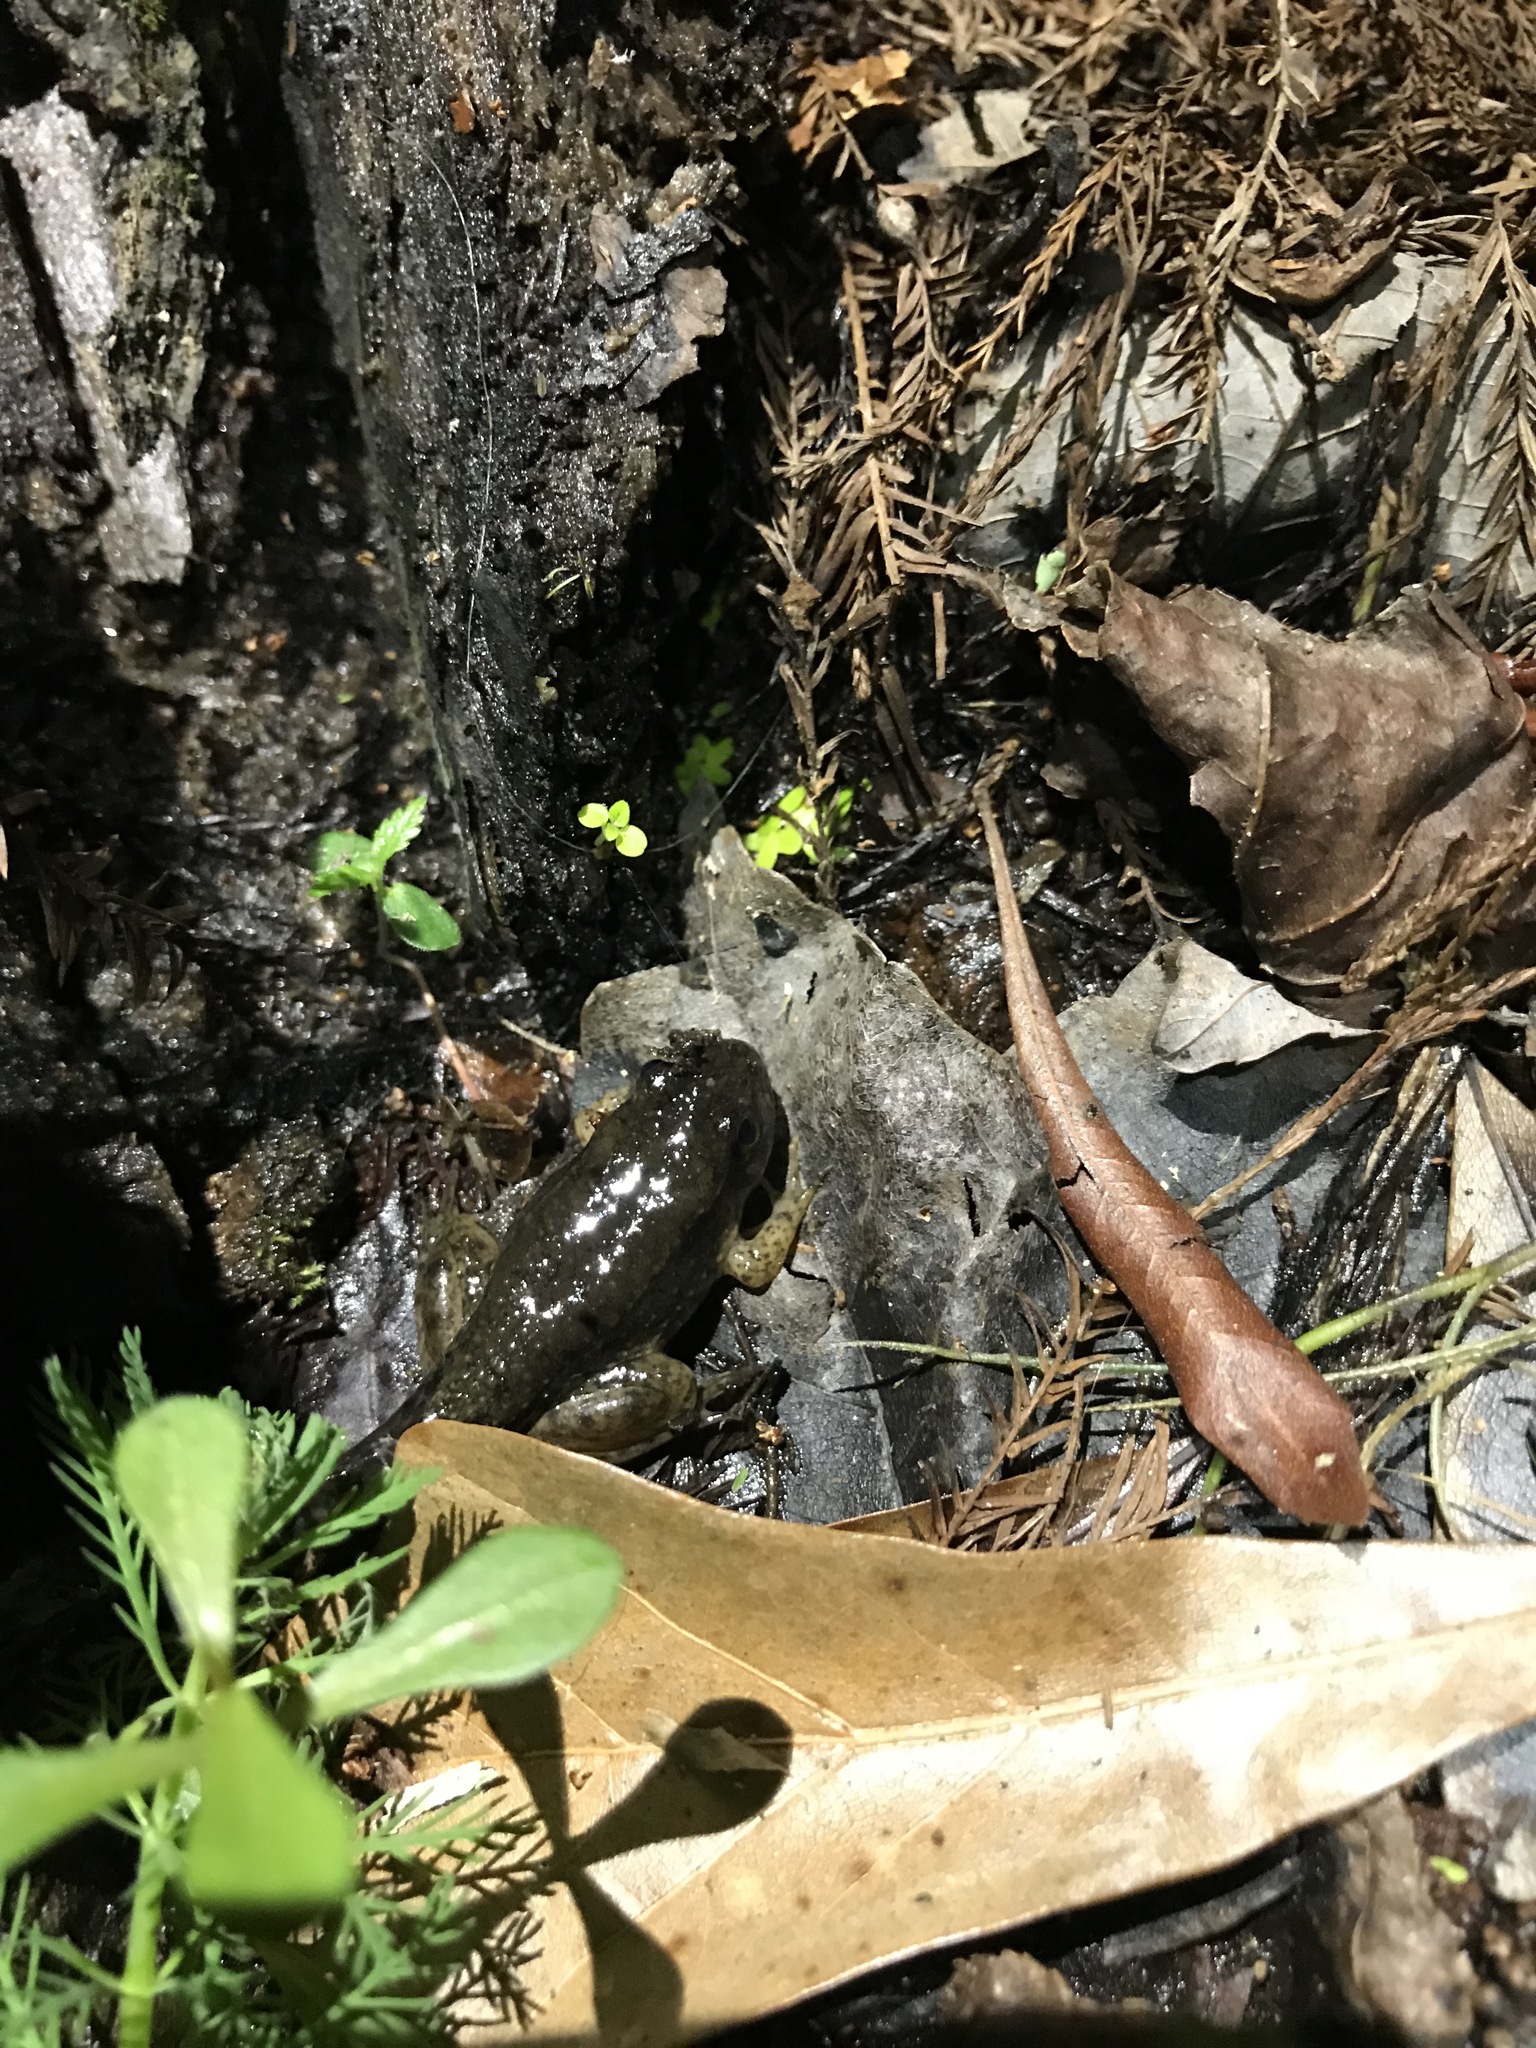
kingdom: Animalia
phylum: Chordata
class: Amphibia
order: Anura
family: Ranidae
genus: Lithobates
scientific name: Lithobates clamitans
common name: Green frog
